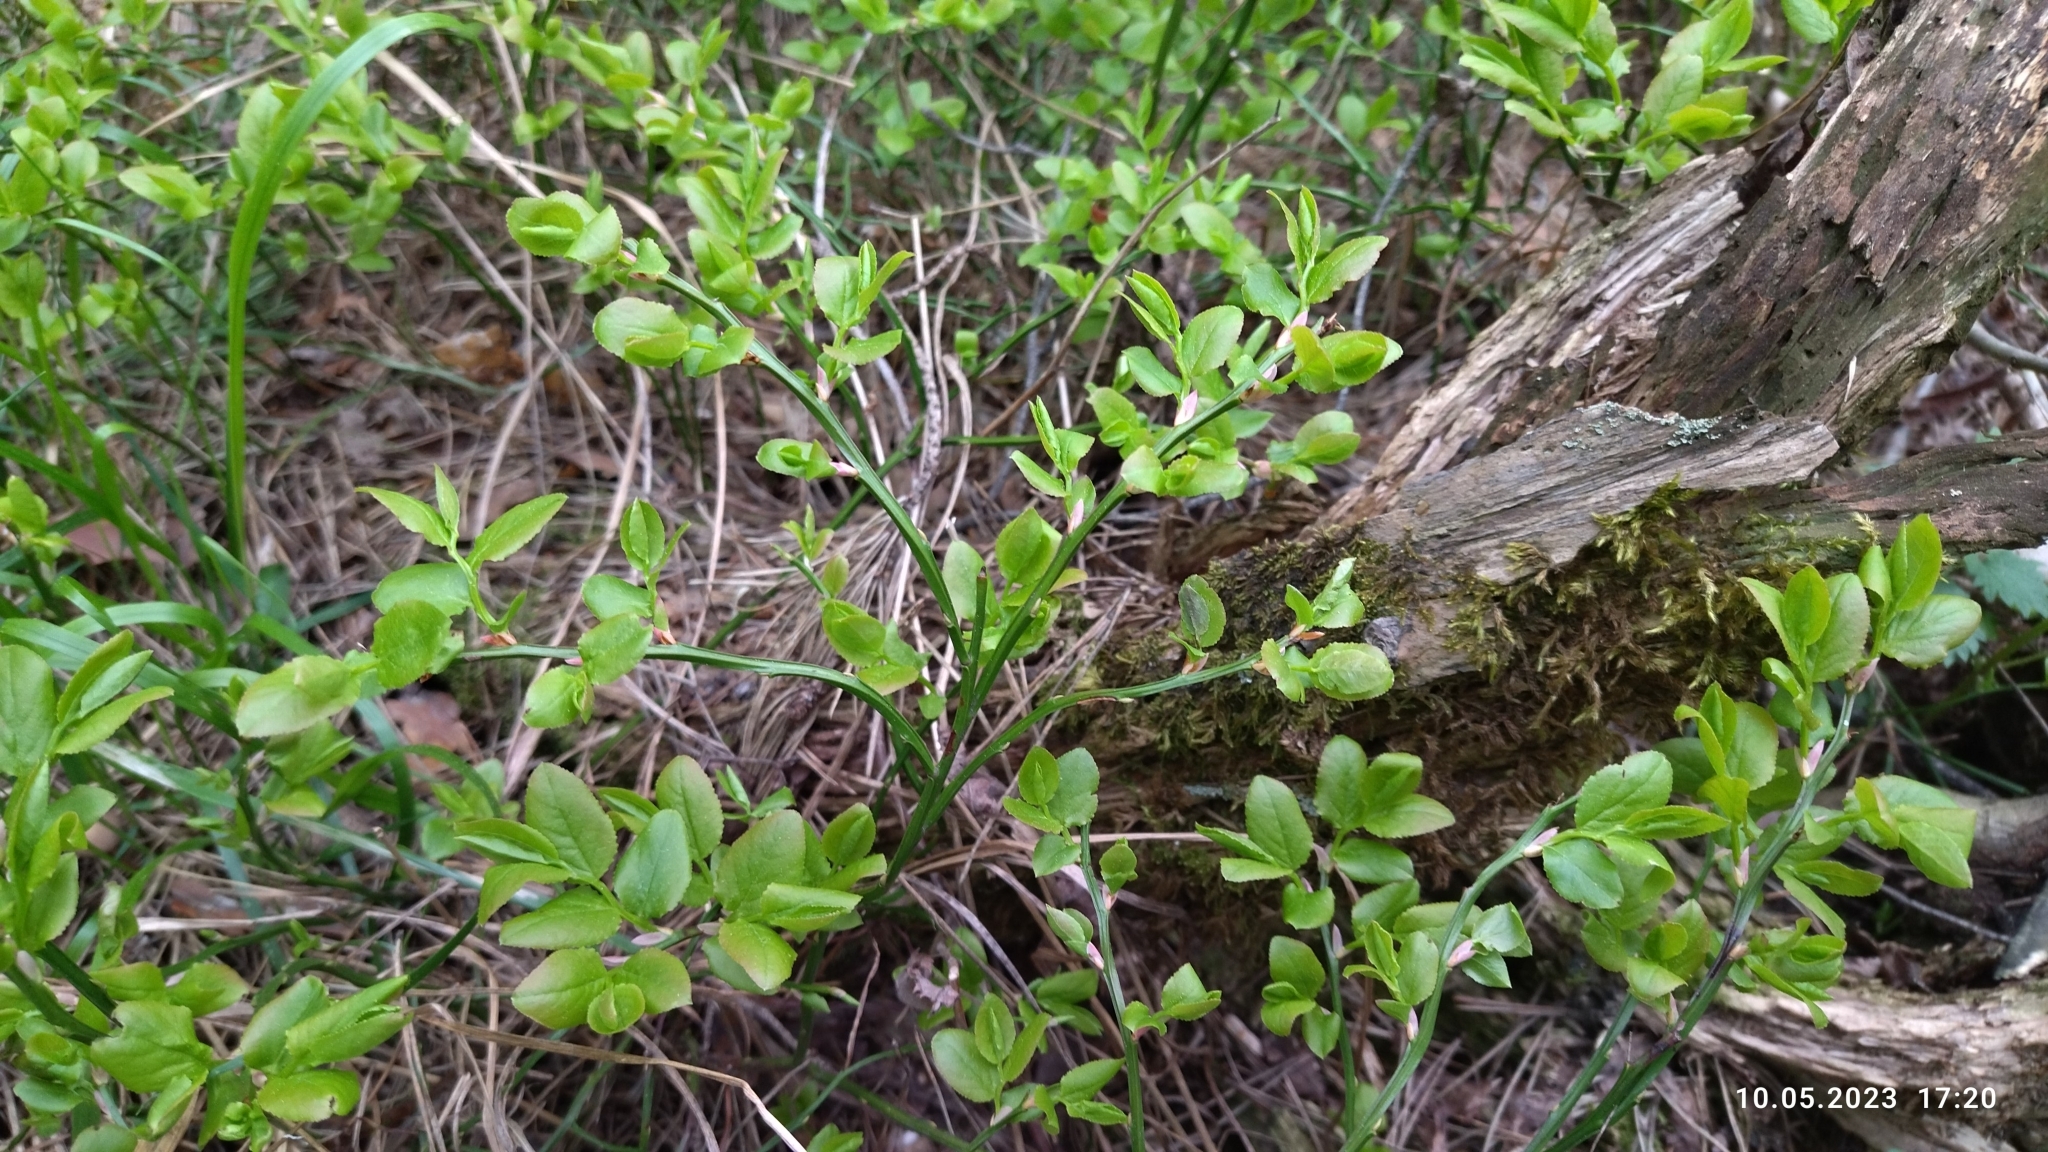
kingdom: Plantae
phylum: Tracheophyta
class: Magnoliopsida
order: Ericales
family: Ericaceae
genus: Vaccinium
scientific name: Vaccinium myrtillus
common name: Bilberry
